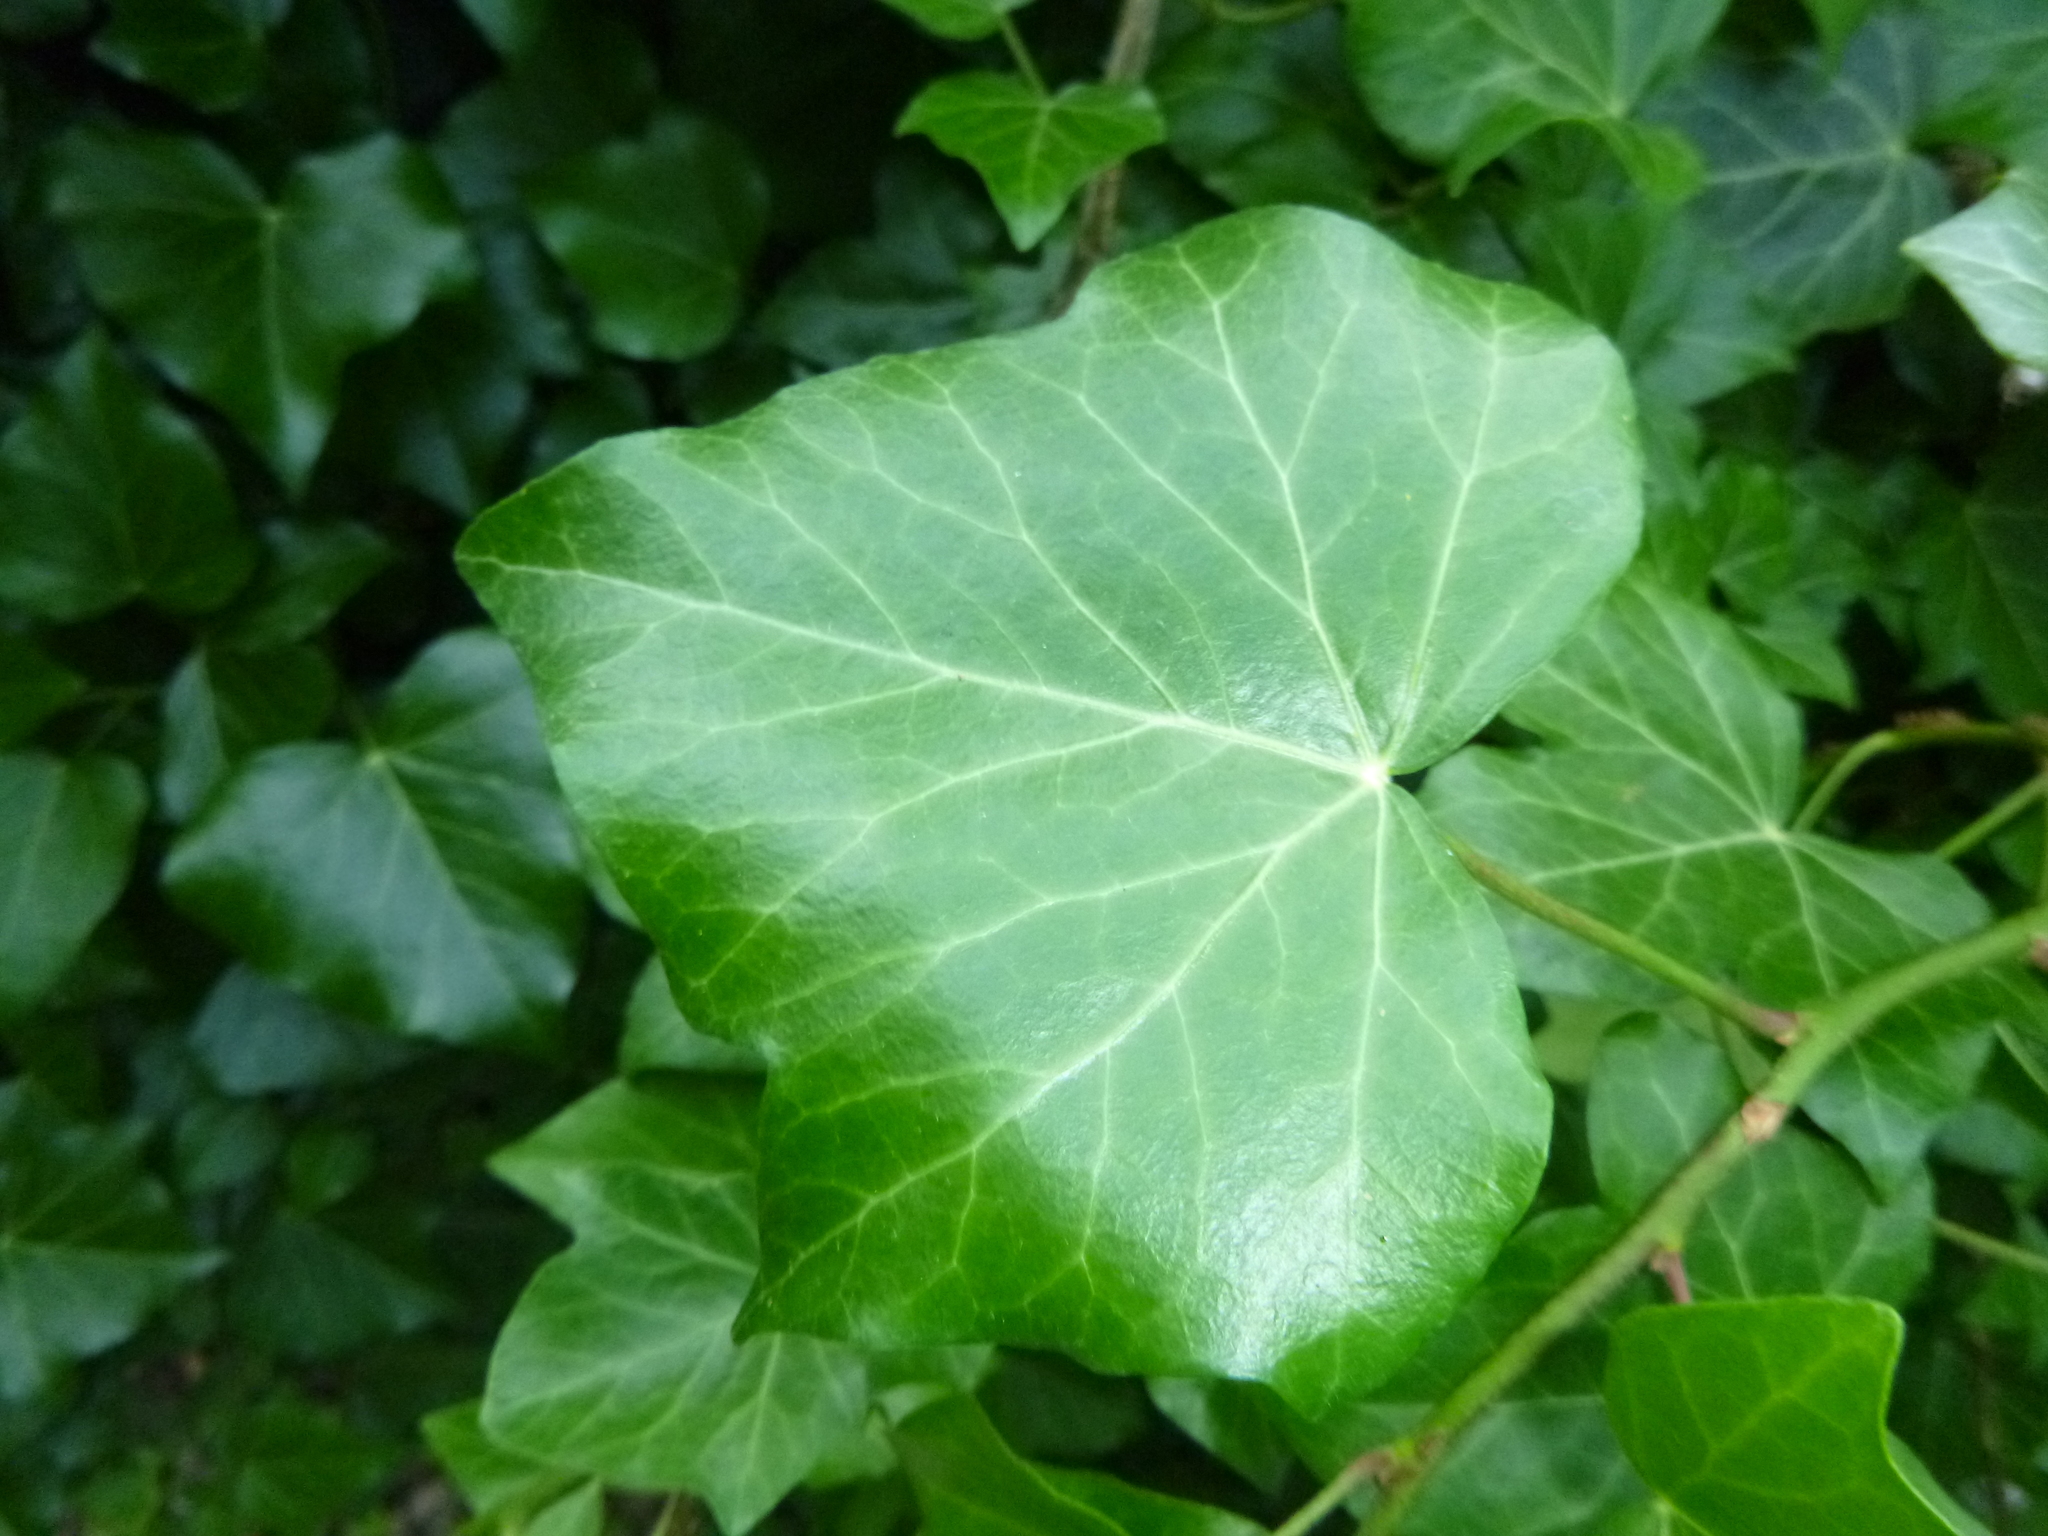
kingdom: Plantae
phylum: Tracheophyta
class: Magnoliopsida
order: Apiales
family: Araliaceae
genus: Hedera
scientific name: Hedera helix
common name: Ivy
